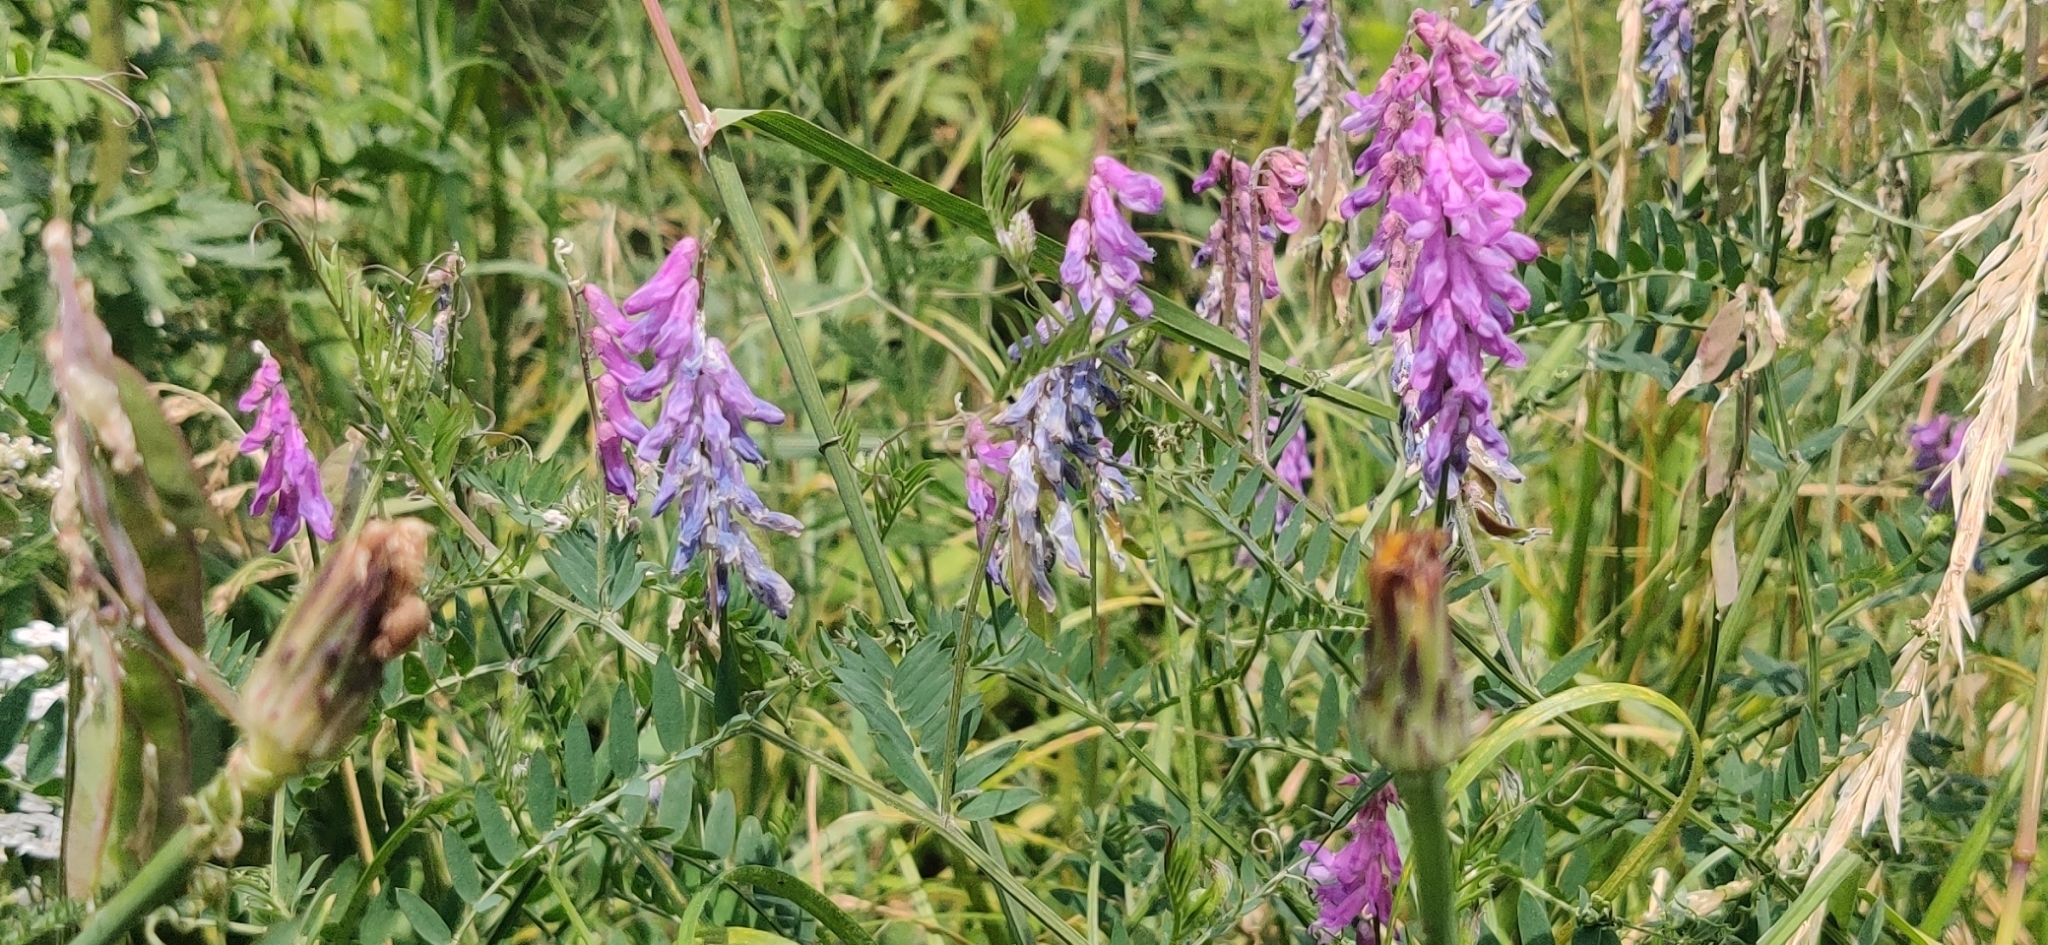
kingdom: Plantae
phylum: Tracheophyta
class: Magnoliopsida
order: Fabales
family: Fabaceae
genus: Vicia
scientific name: Vicia cracca
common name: Bird vetch
